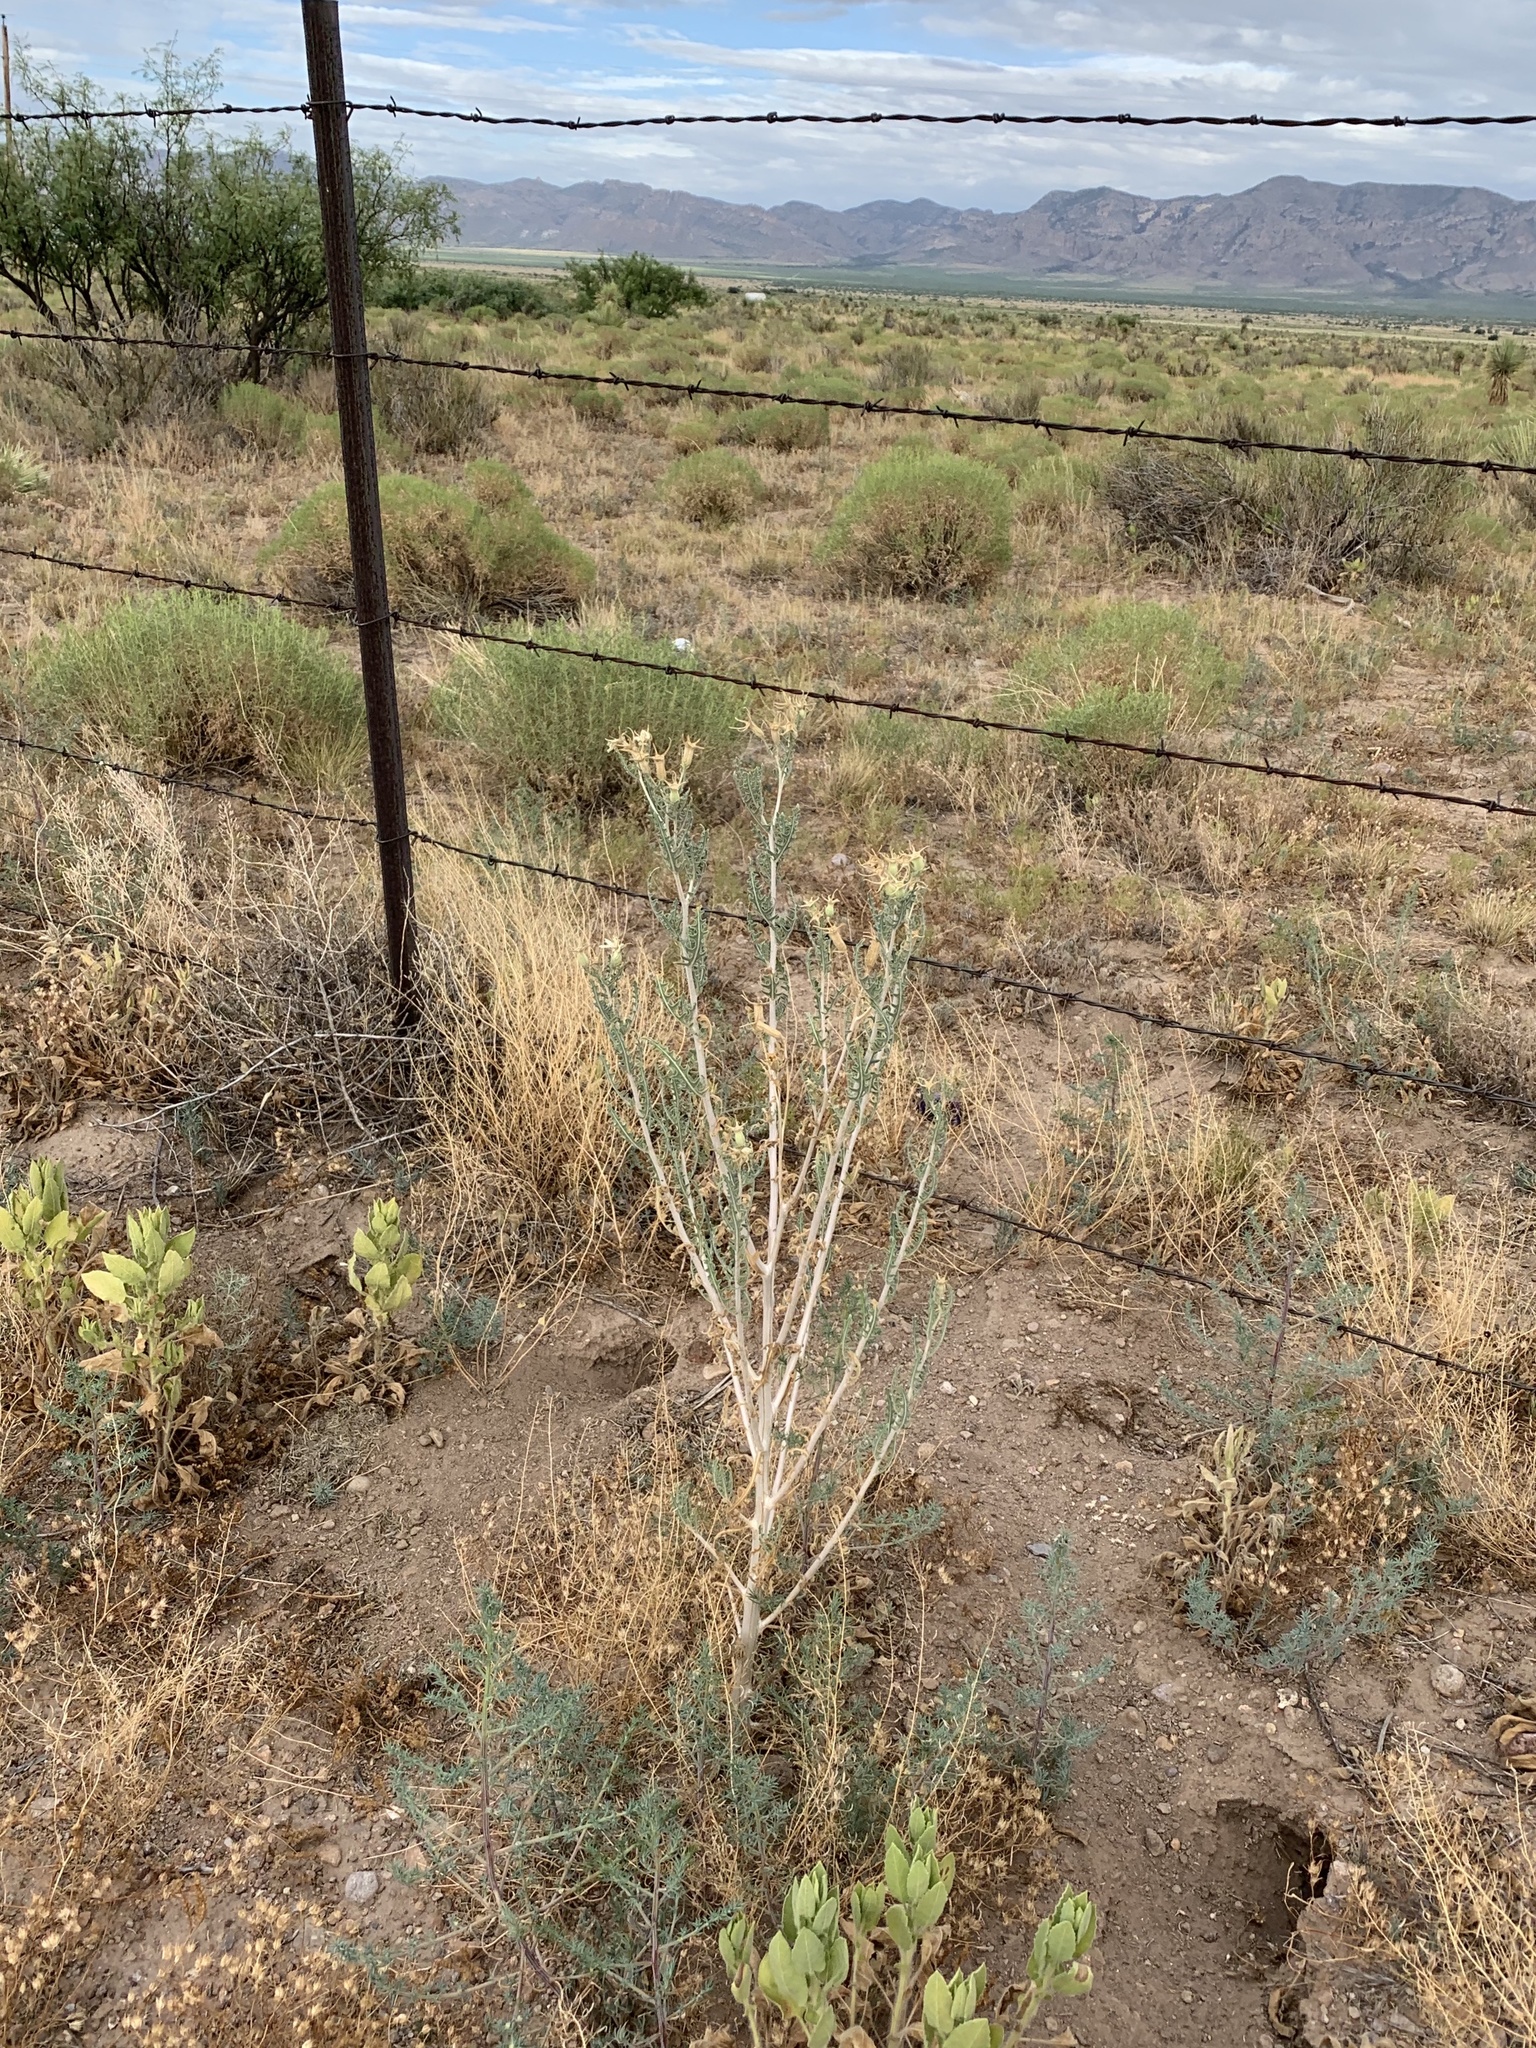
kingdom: Plantae
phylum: Tracheophyta
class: Magnoliopsida
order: Cornales
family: Loasaceae
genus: Mentzelia
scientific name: Mentzelia longiloba
